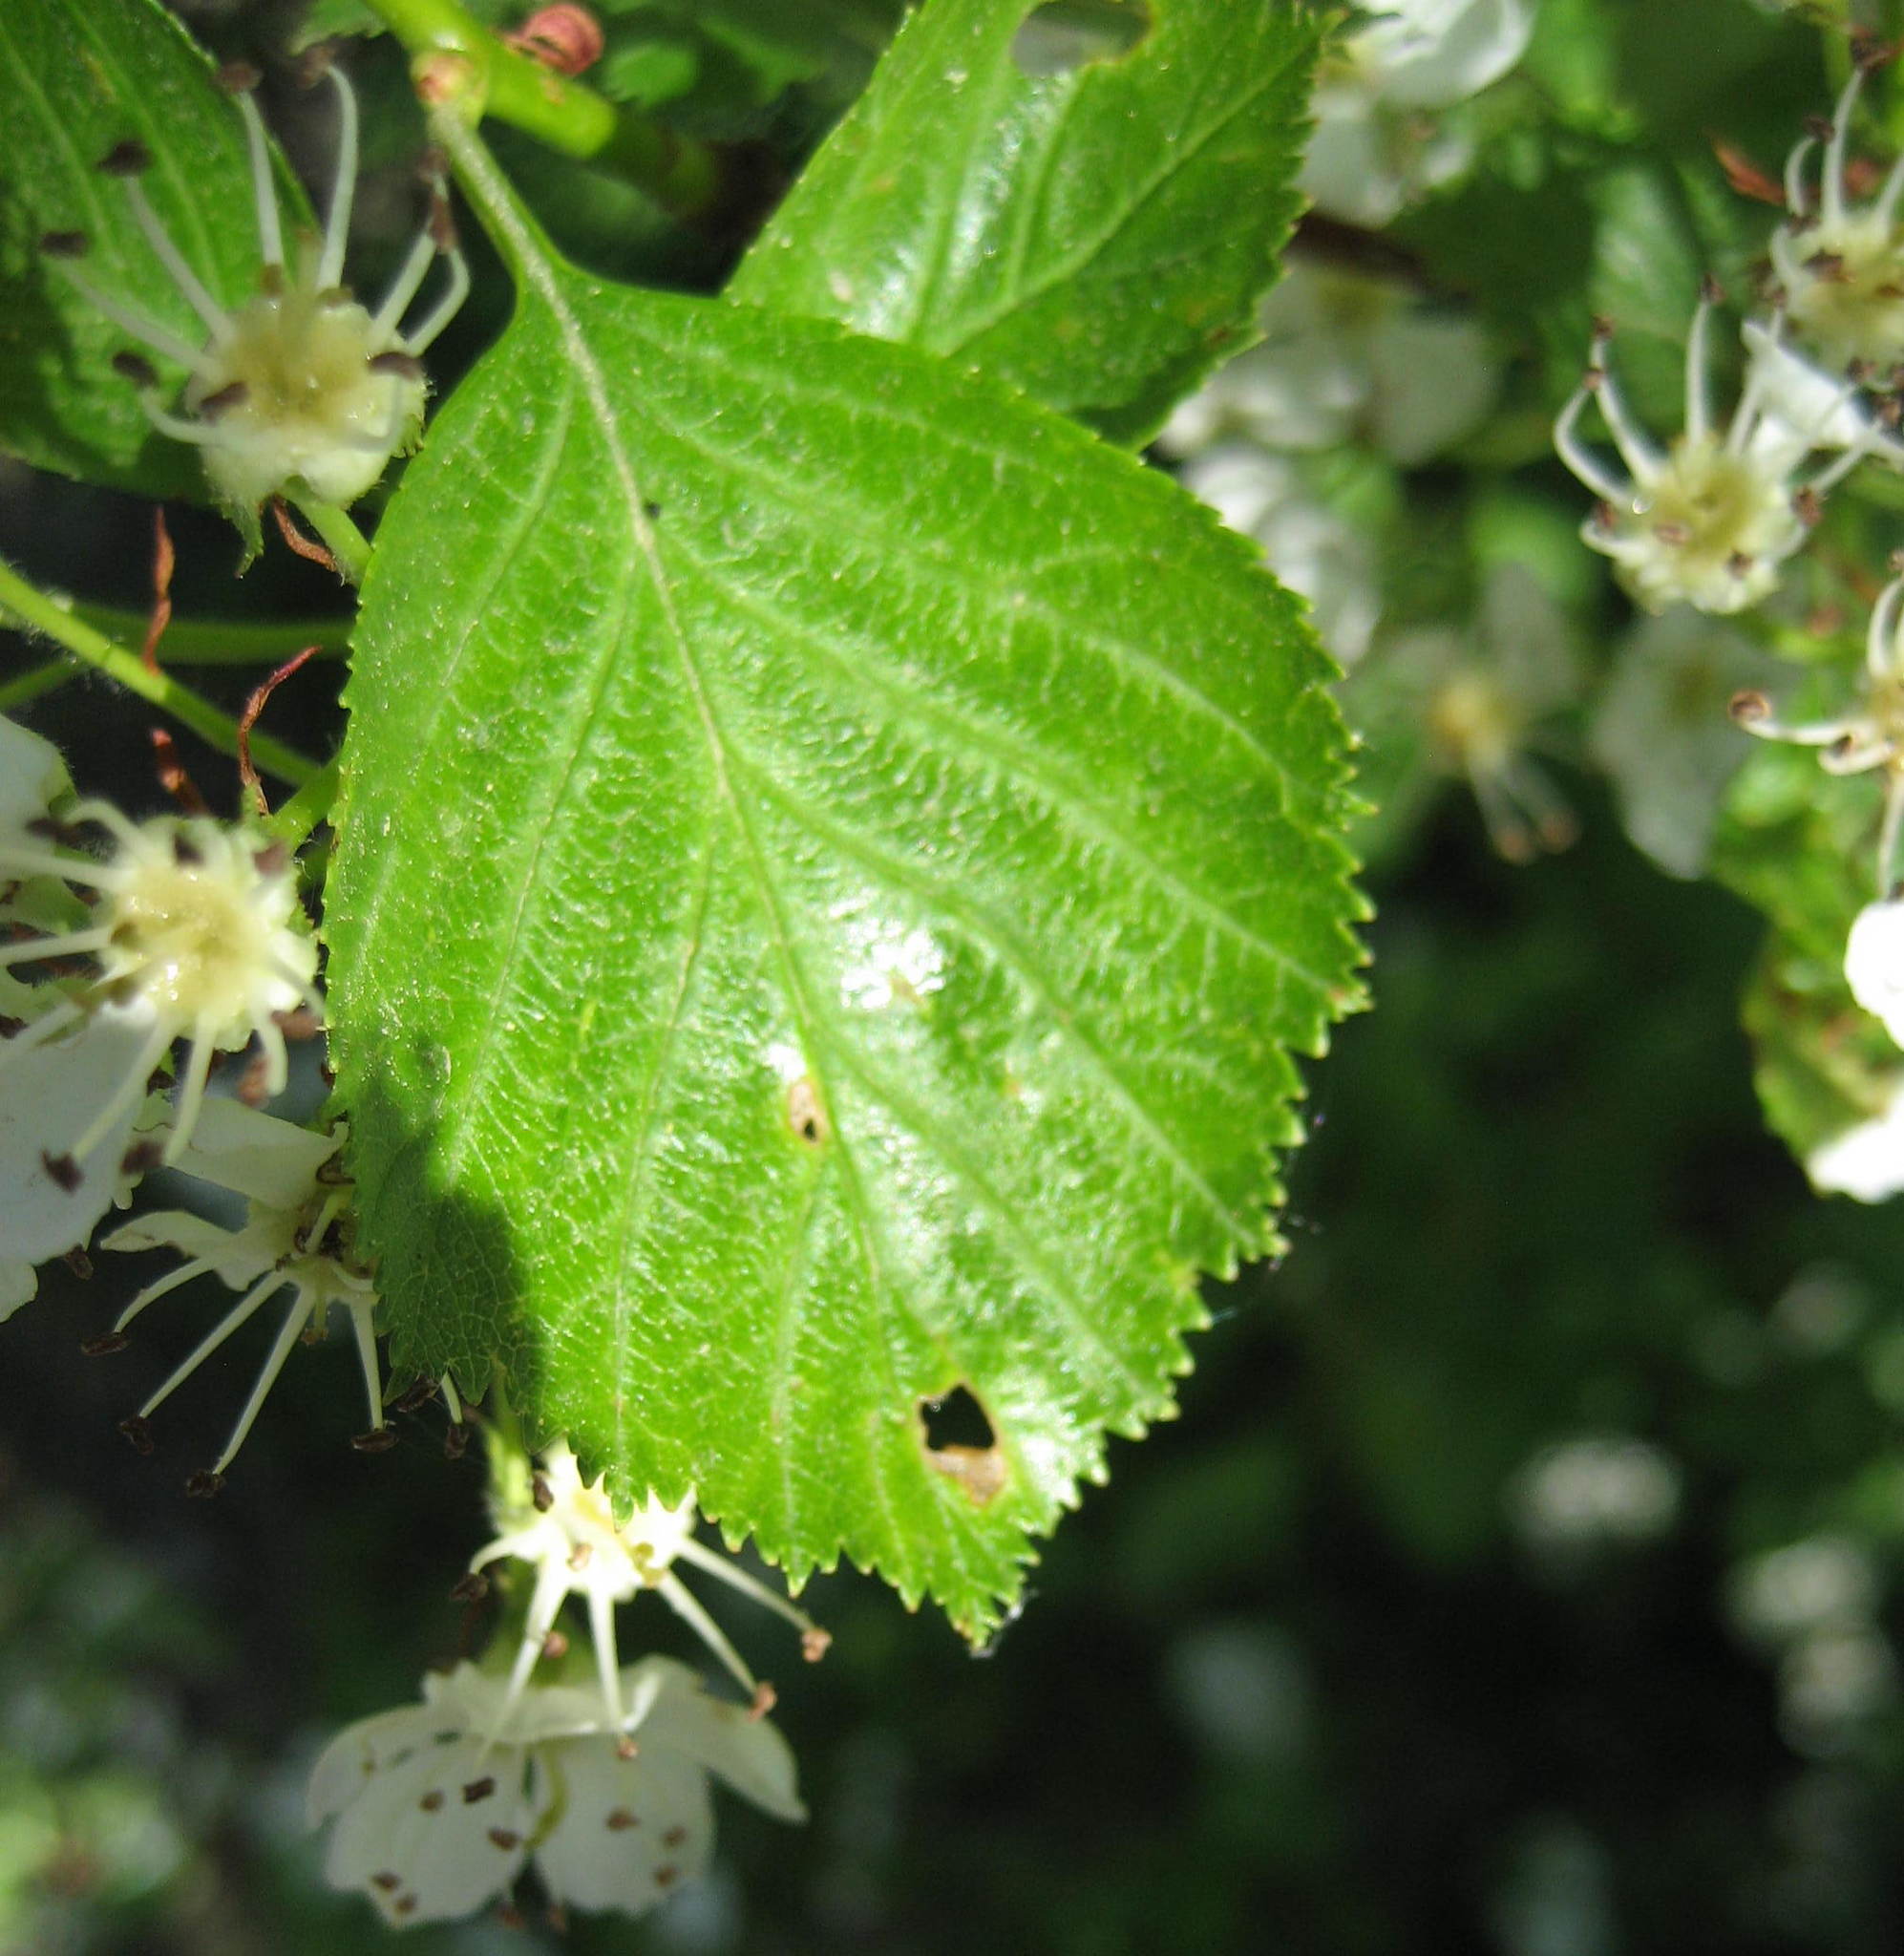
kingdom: Plantae
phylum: Tracheophyta
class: Magnoliopsida
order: Rosales
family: Rosaceae
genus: Crataegus
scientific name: Crataegus macracantha
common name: Large-thorn hawthorn
